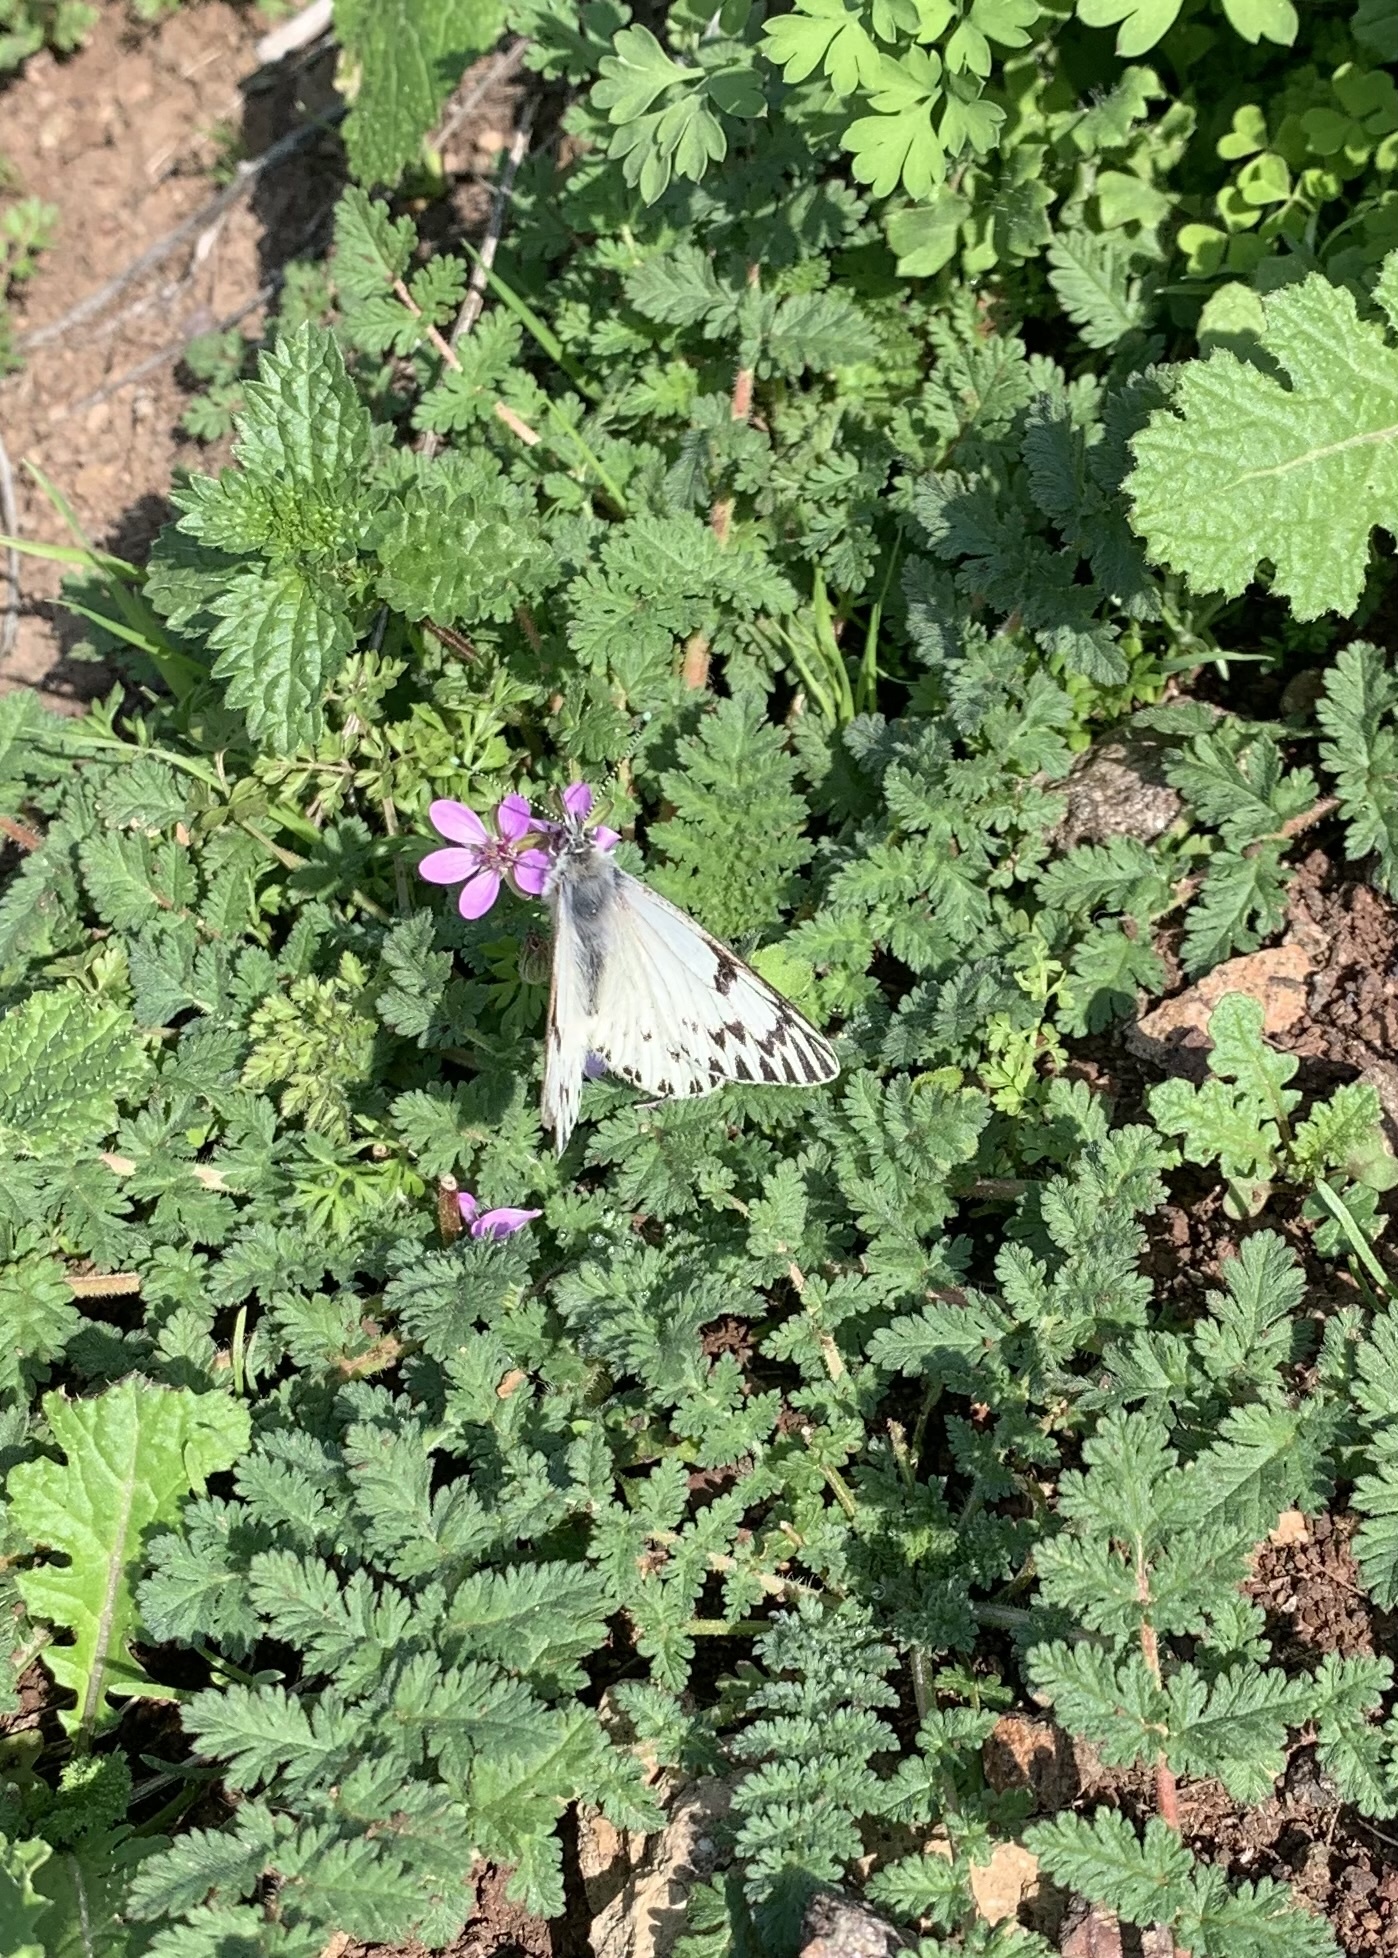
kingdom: Animalia
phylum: Arthropoda
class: Insecta
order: Lepidoptera
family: Pieridae
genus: Tatochila
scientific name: Tatochila mercedis
